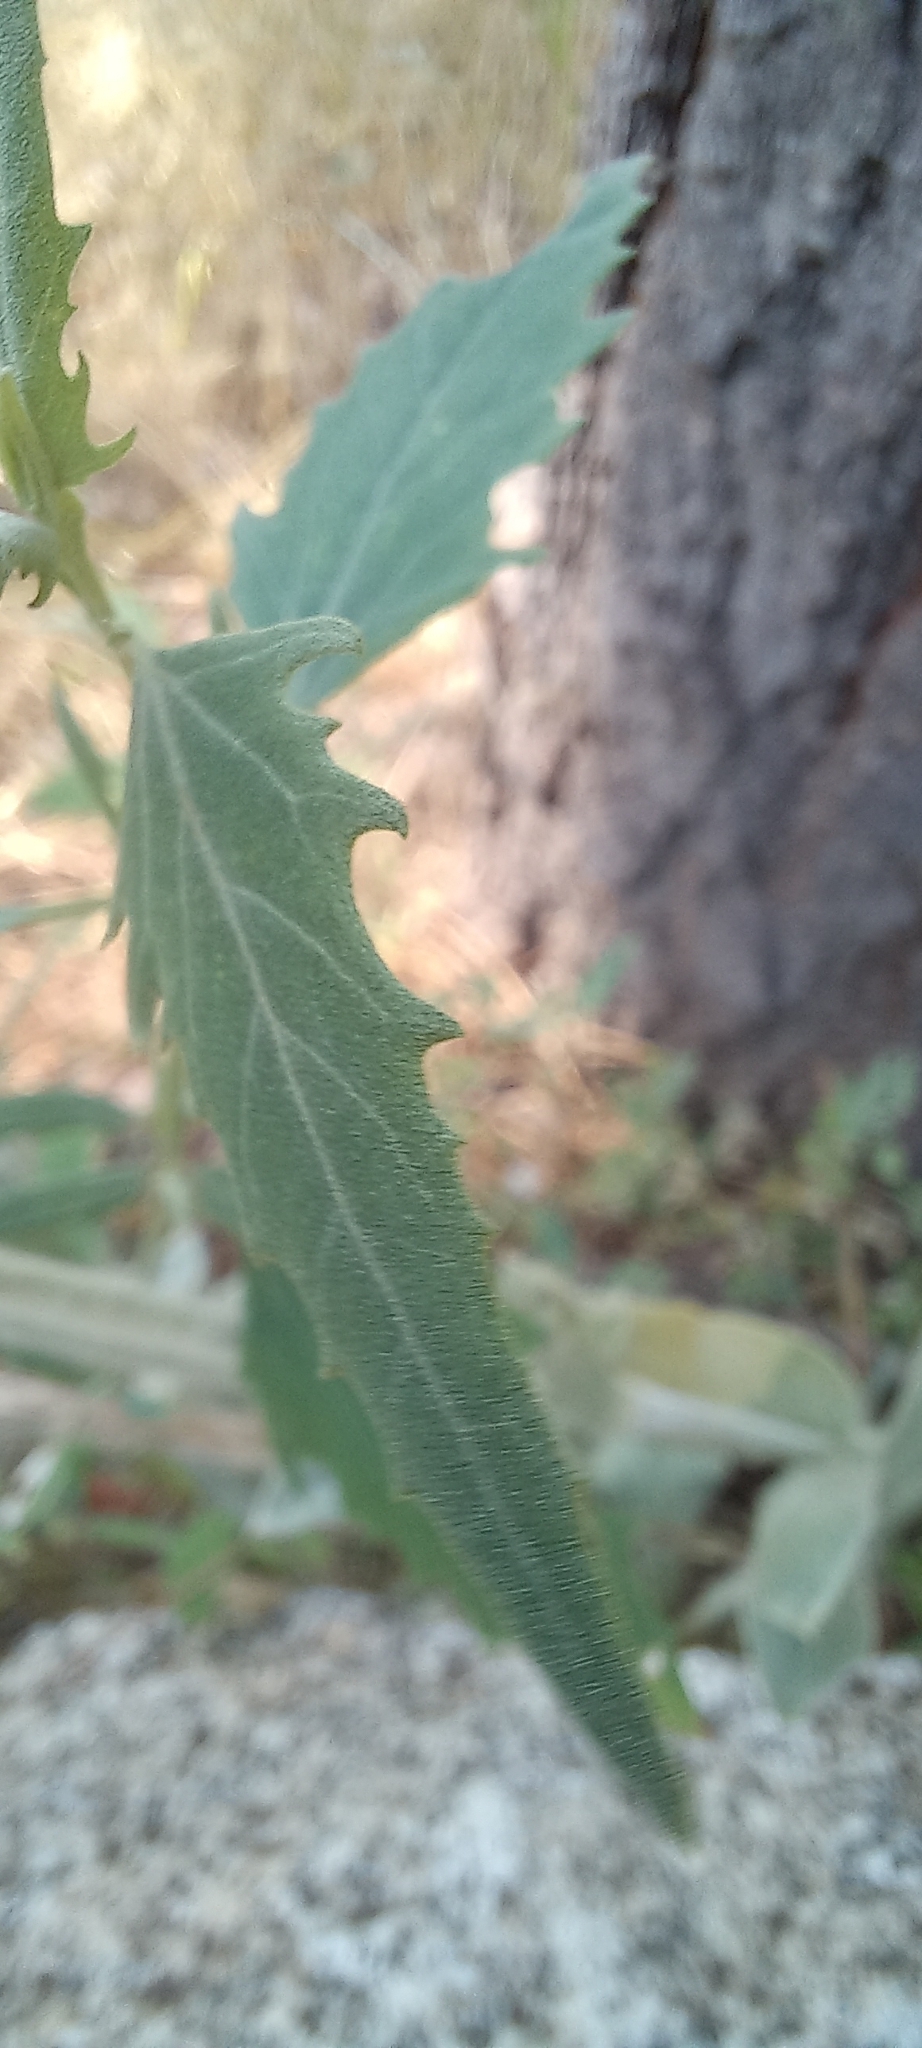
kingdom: Plantae
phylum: Tracheophyta
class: Magnoliopsida
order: Caryophyllales
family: Caryophyllaceae
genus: Silene
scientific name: Silene coronaria
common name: Rose campion
